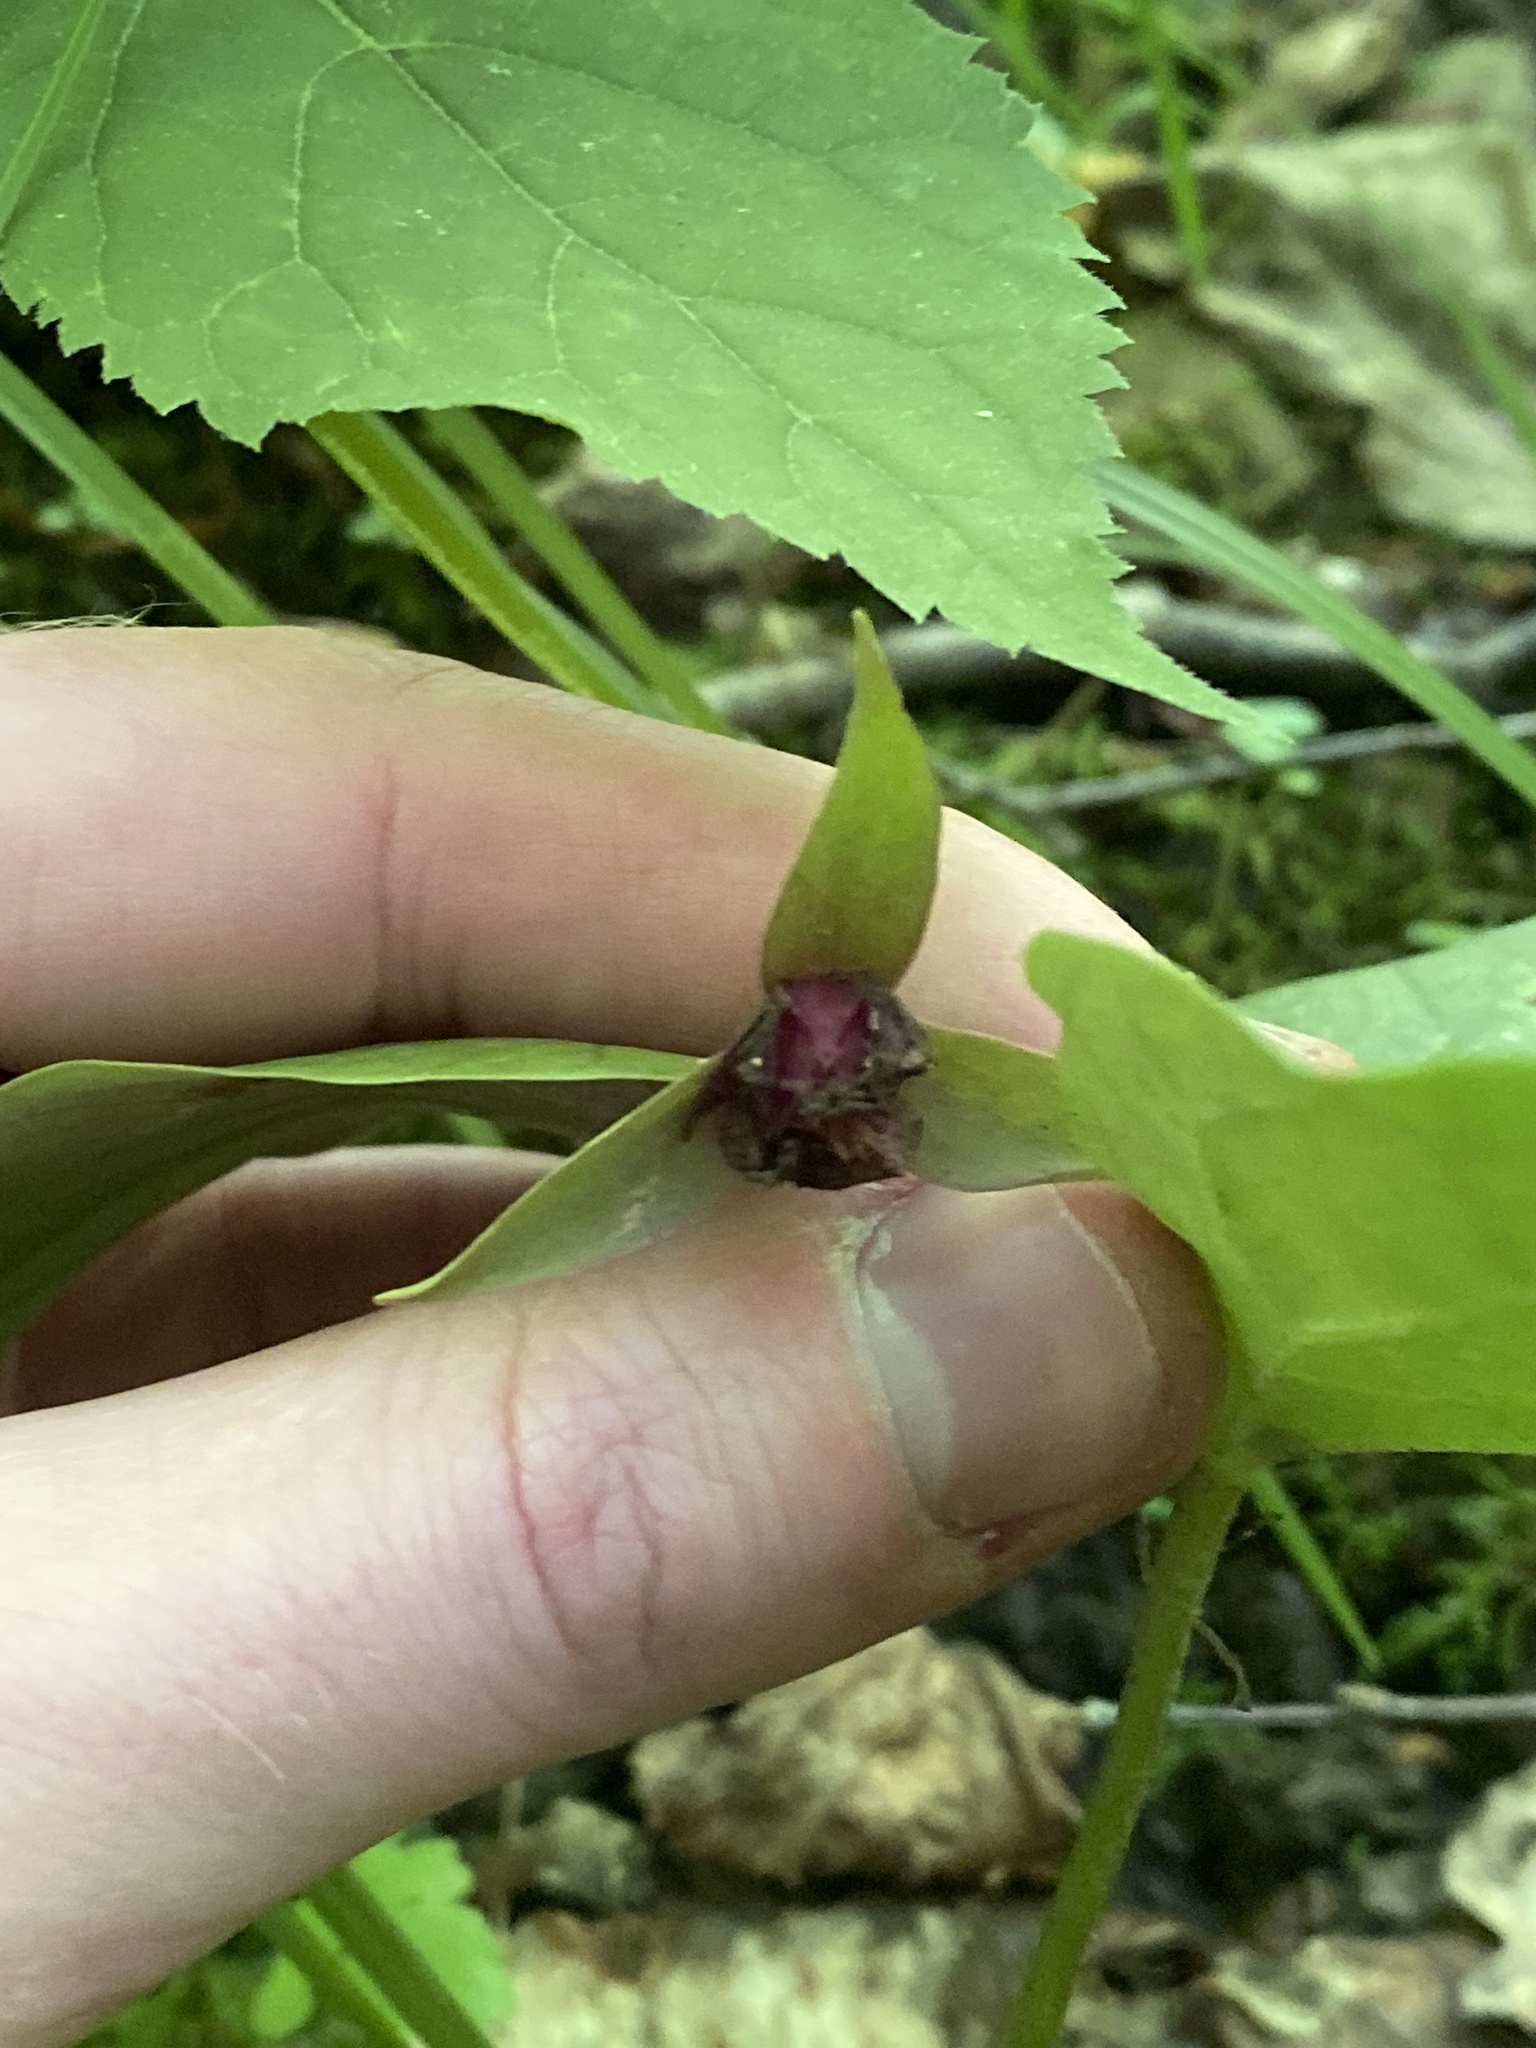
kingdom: Plantae
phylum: Tracheophyta
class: Liliopsida
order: Liliales
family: Melanthiaceae
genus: Trillium
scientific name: Trillium erectum
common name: Purple trillium
